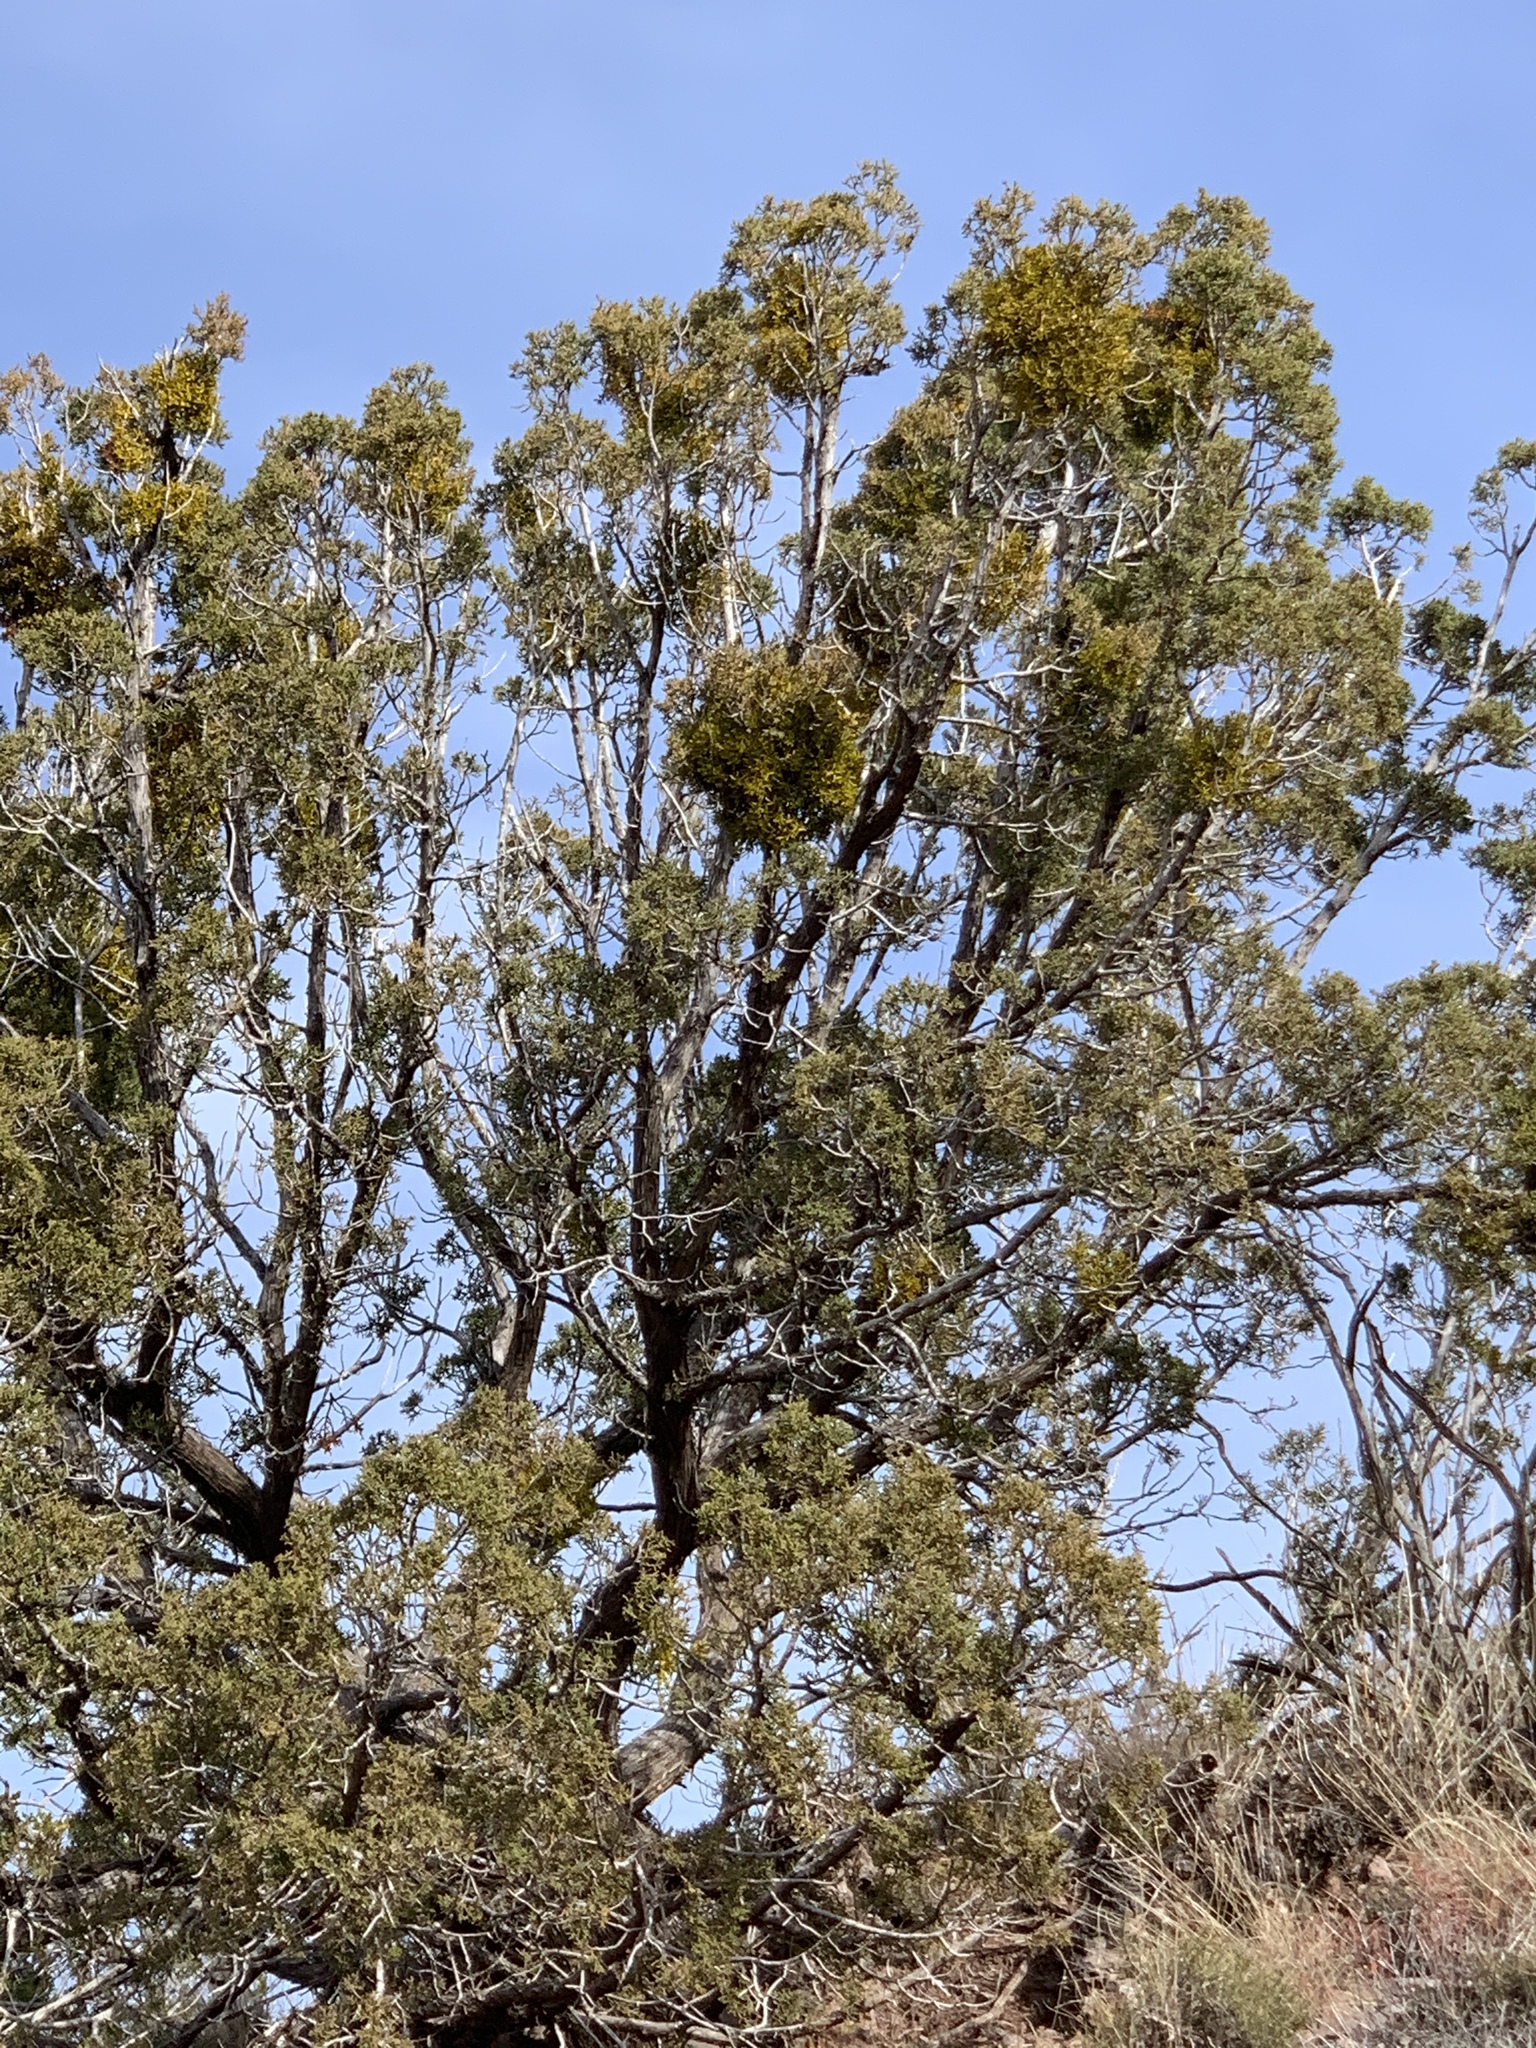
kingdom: Plantae
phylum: Tracheophyta
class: Pinopsida
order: Pinales
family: Cupressaceae
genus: Juniperus
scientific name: Juniperus monosperma
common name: One-seed juniper
